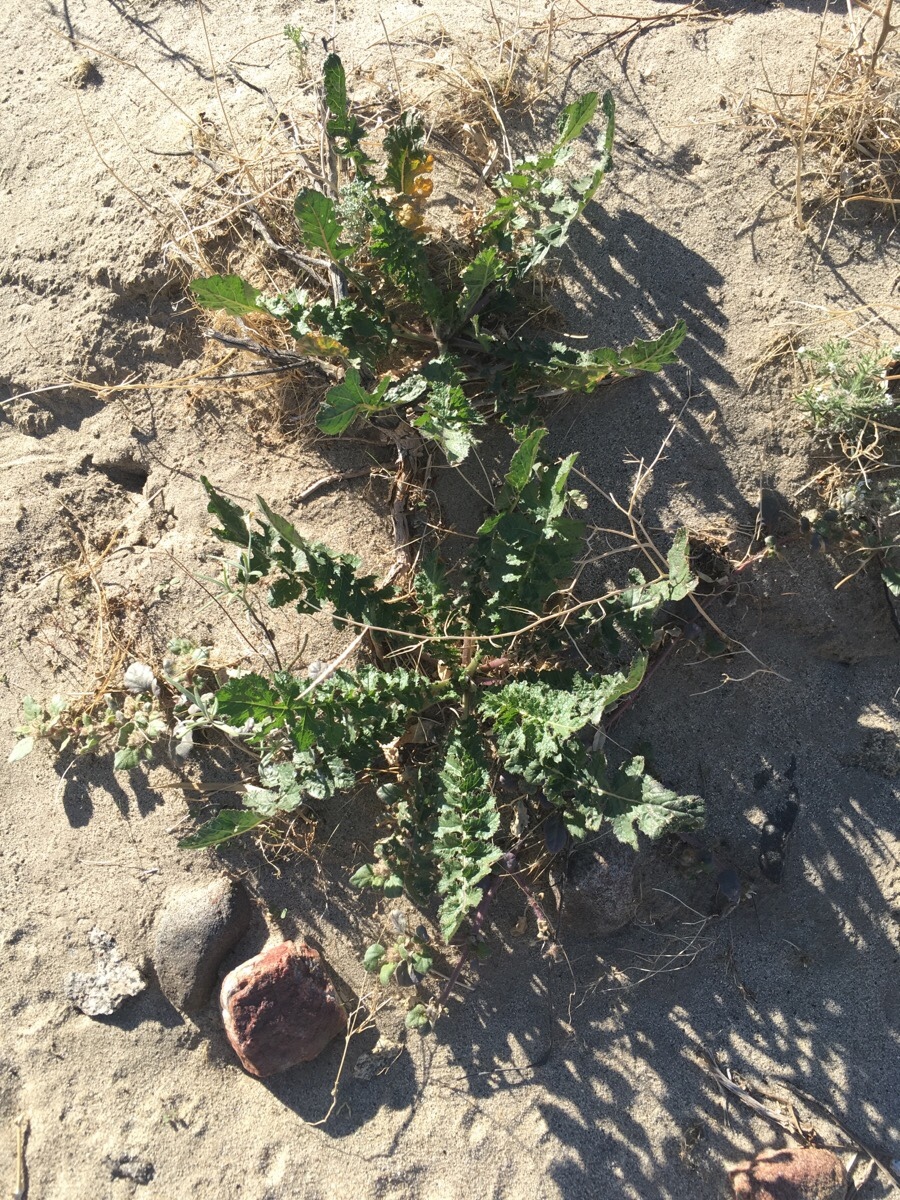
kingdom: Plantae
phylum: Tracheophyta
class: Magnoliopsida
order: Brassicales
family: Brassicaceae
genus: Brassica
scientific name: Brassica tournefortii
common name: Pale cabbage
